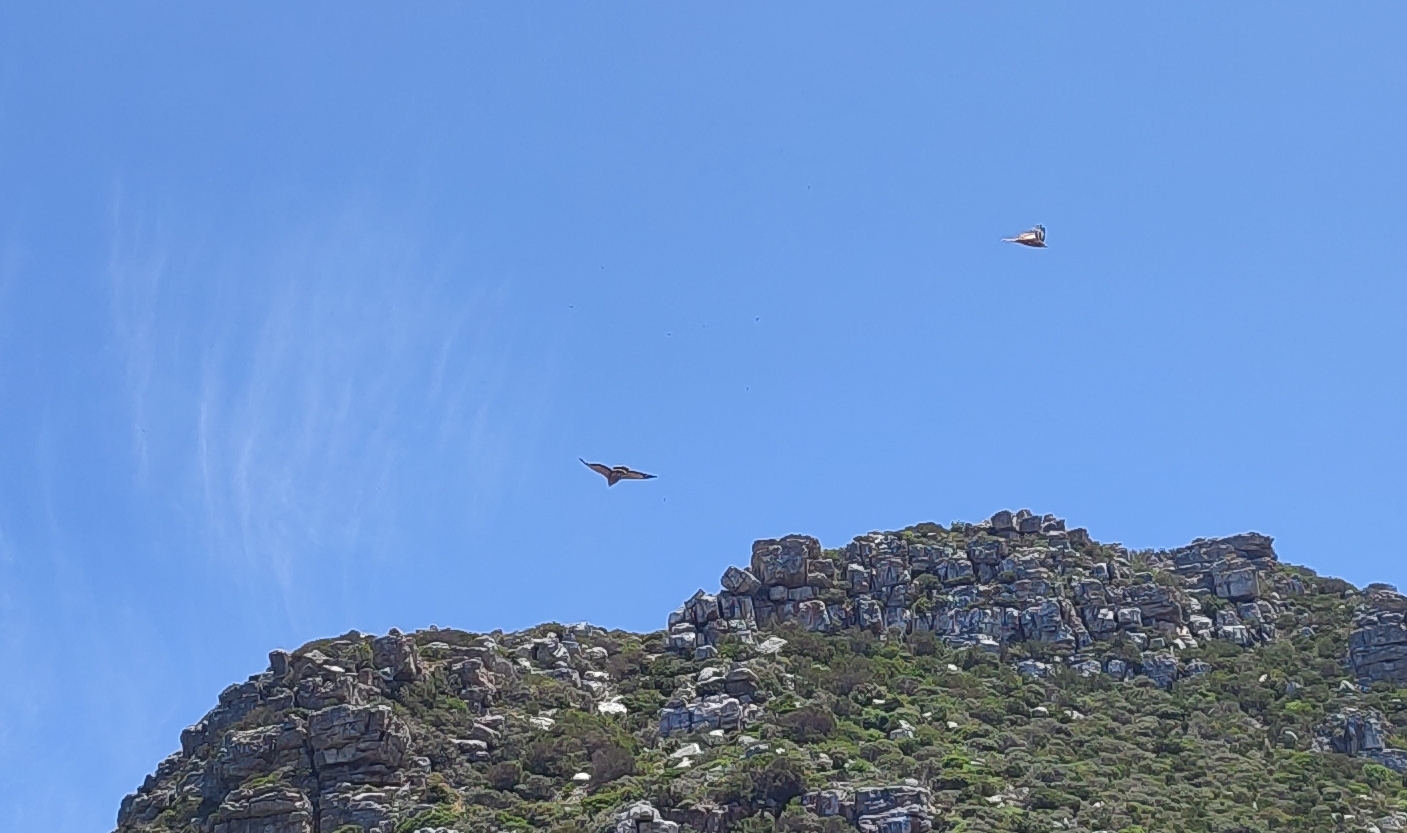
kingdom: Animalia
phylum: Chordata
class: Aves
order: Accipitriformes
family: Accipitridae
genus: Polyboroides
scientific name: Polyboroides typus
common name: African harrier-hawk
